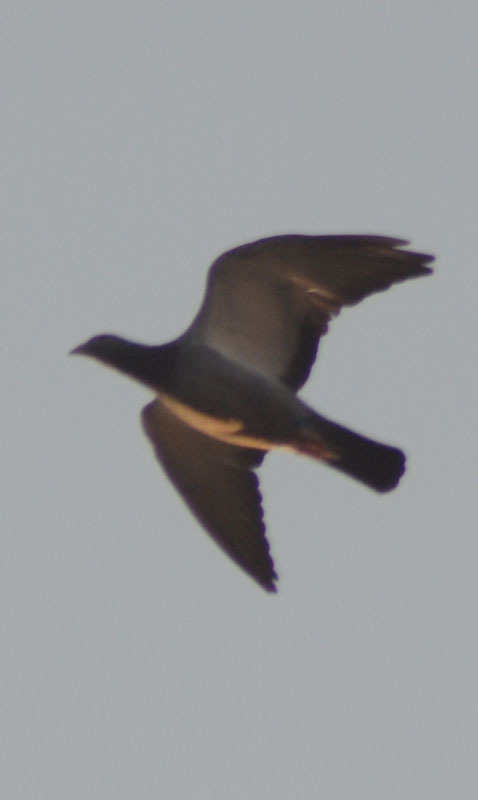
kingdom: Animalia
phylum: Chordata
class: Aves
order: Columbiformes
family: Columbidae
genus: Columba
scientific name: Columba livia
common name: Rock pigeon
